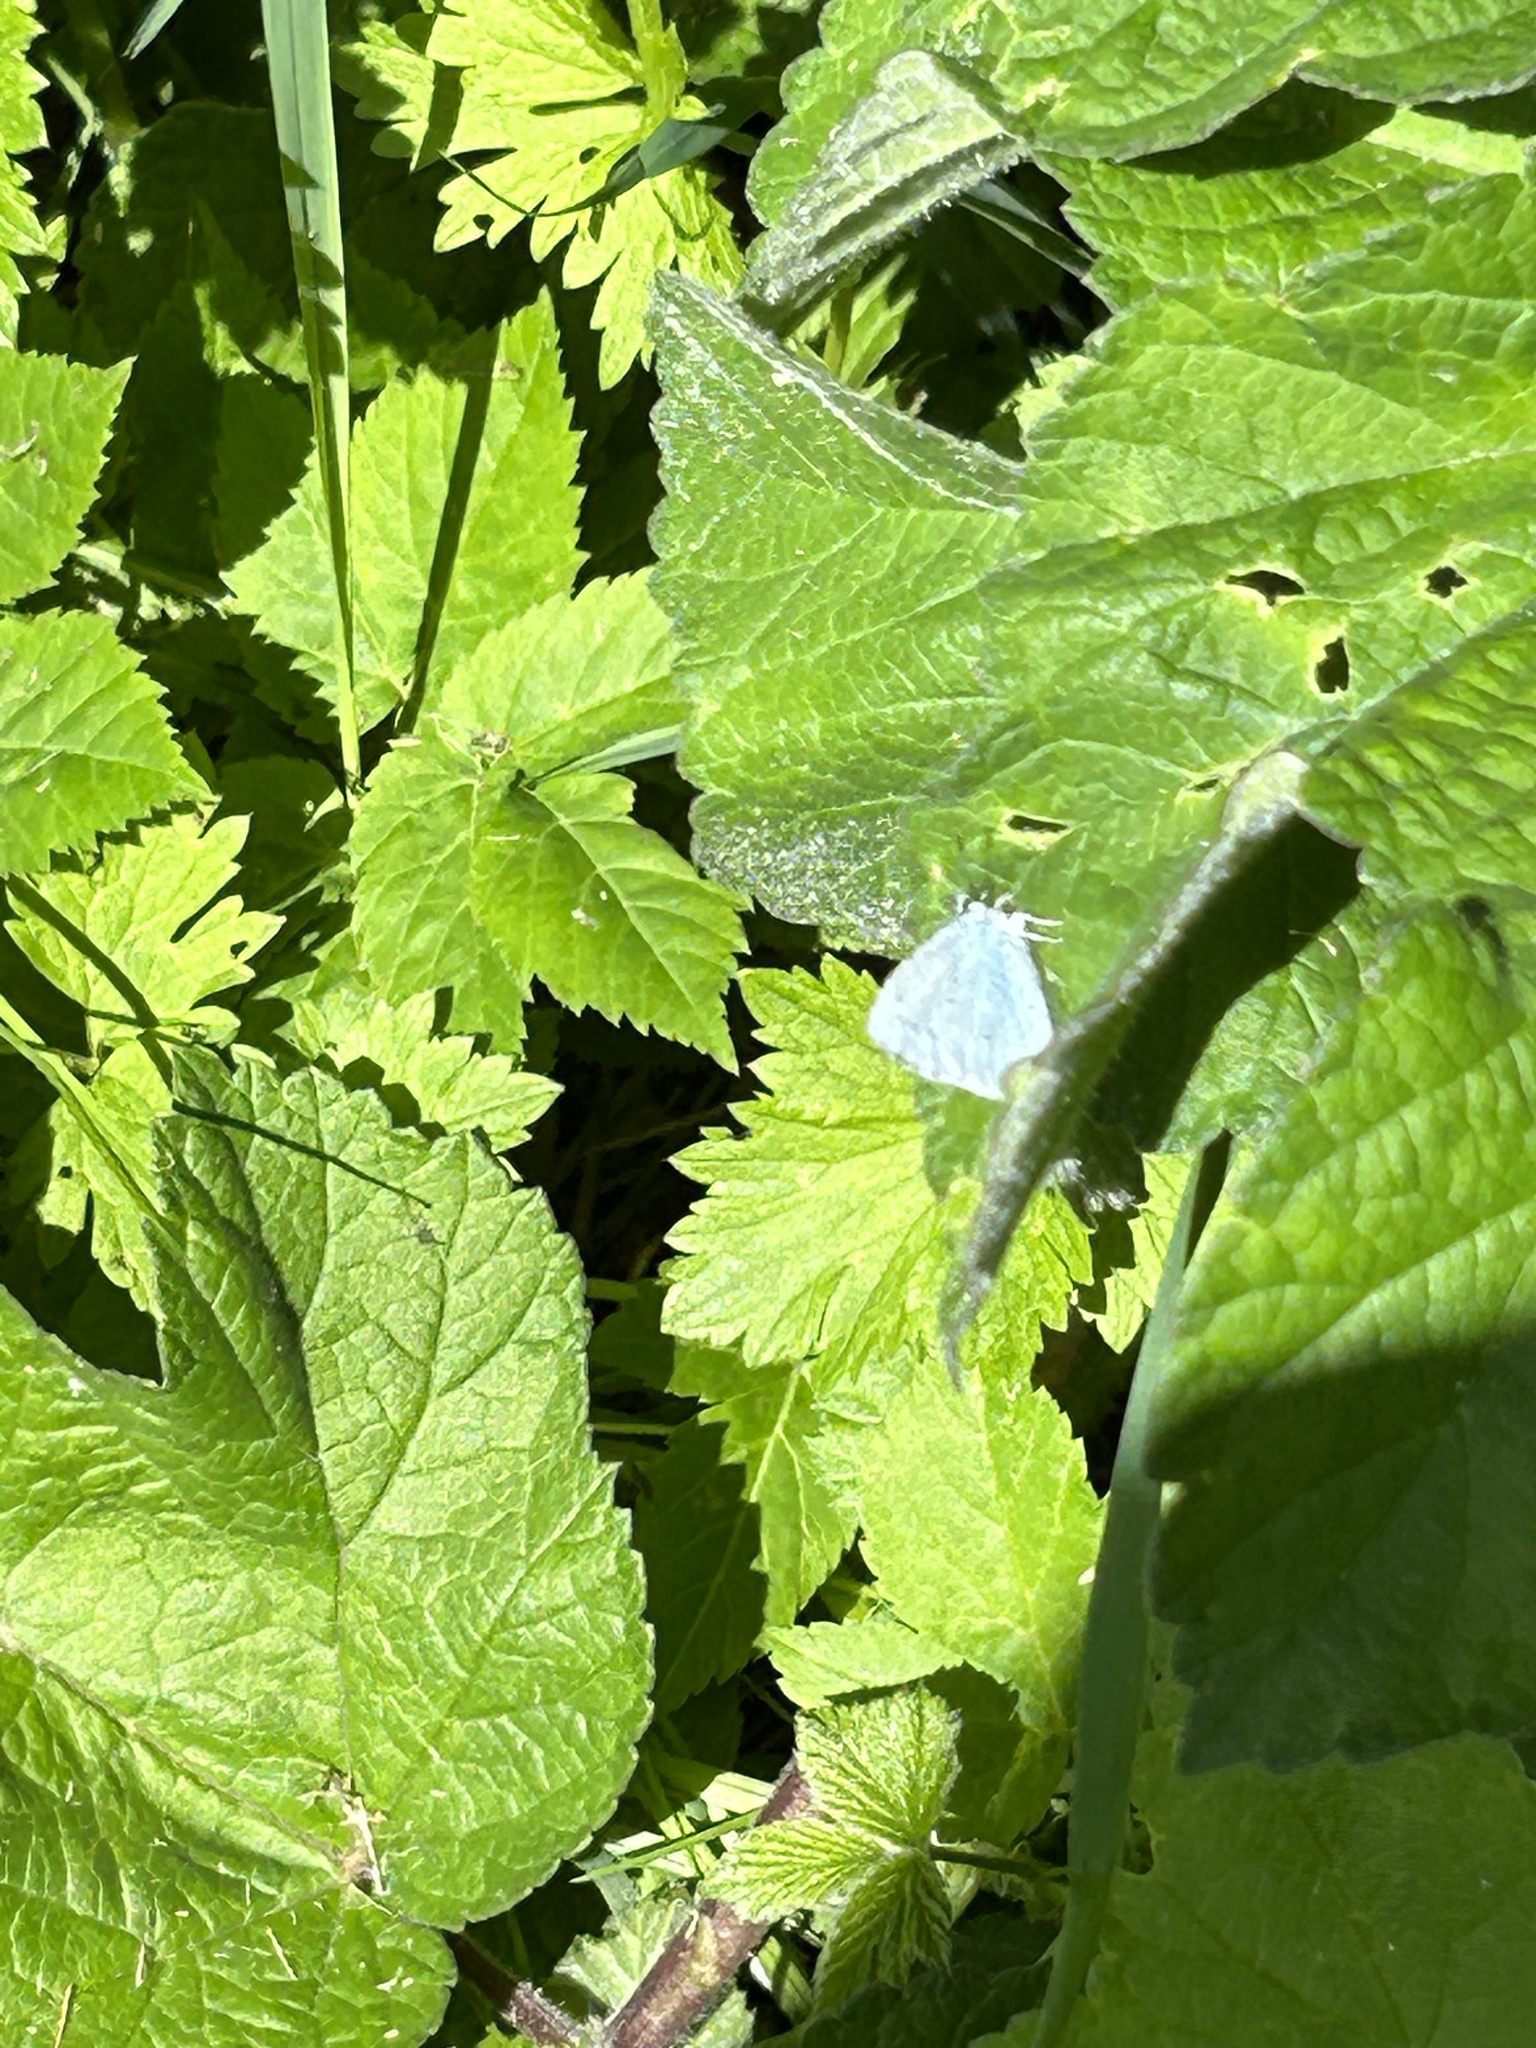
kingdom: Animalia
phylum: Arthropoda
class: Insecta
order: Lepidoptera
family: Lycaenidae
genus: Celastrina
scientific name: Celastrina argiolus
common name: Holly blue
